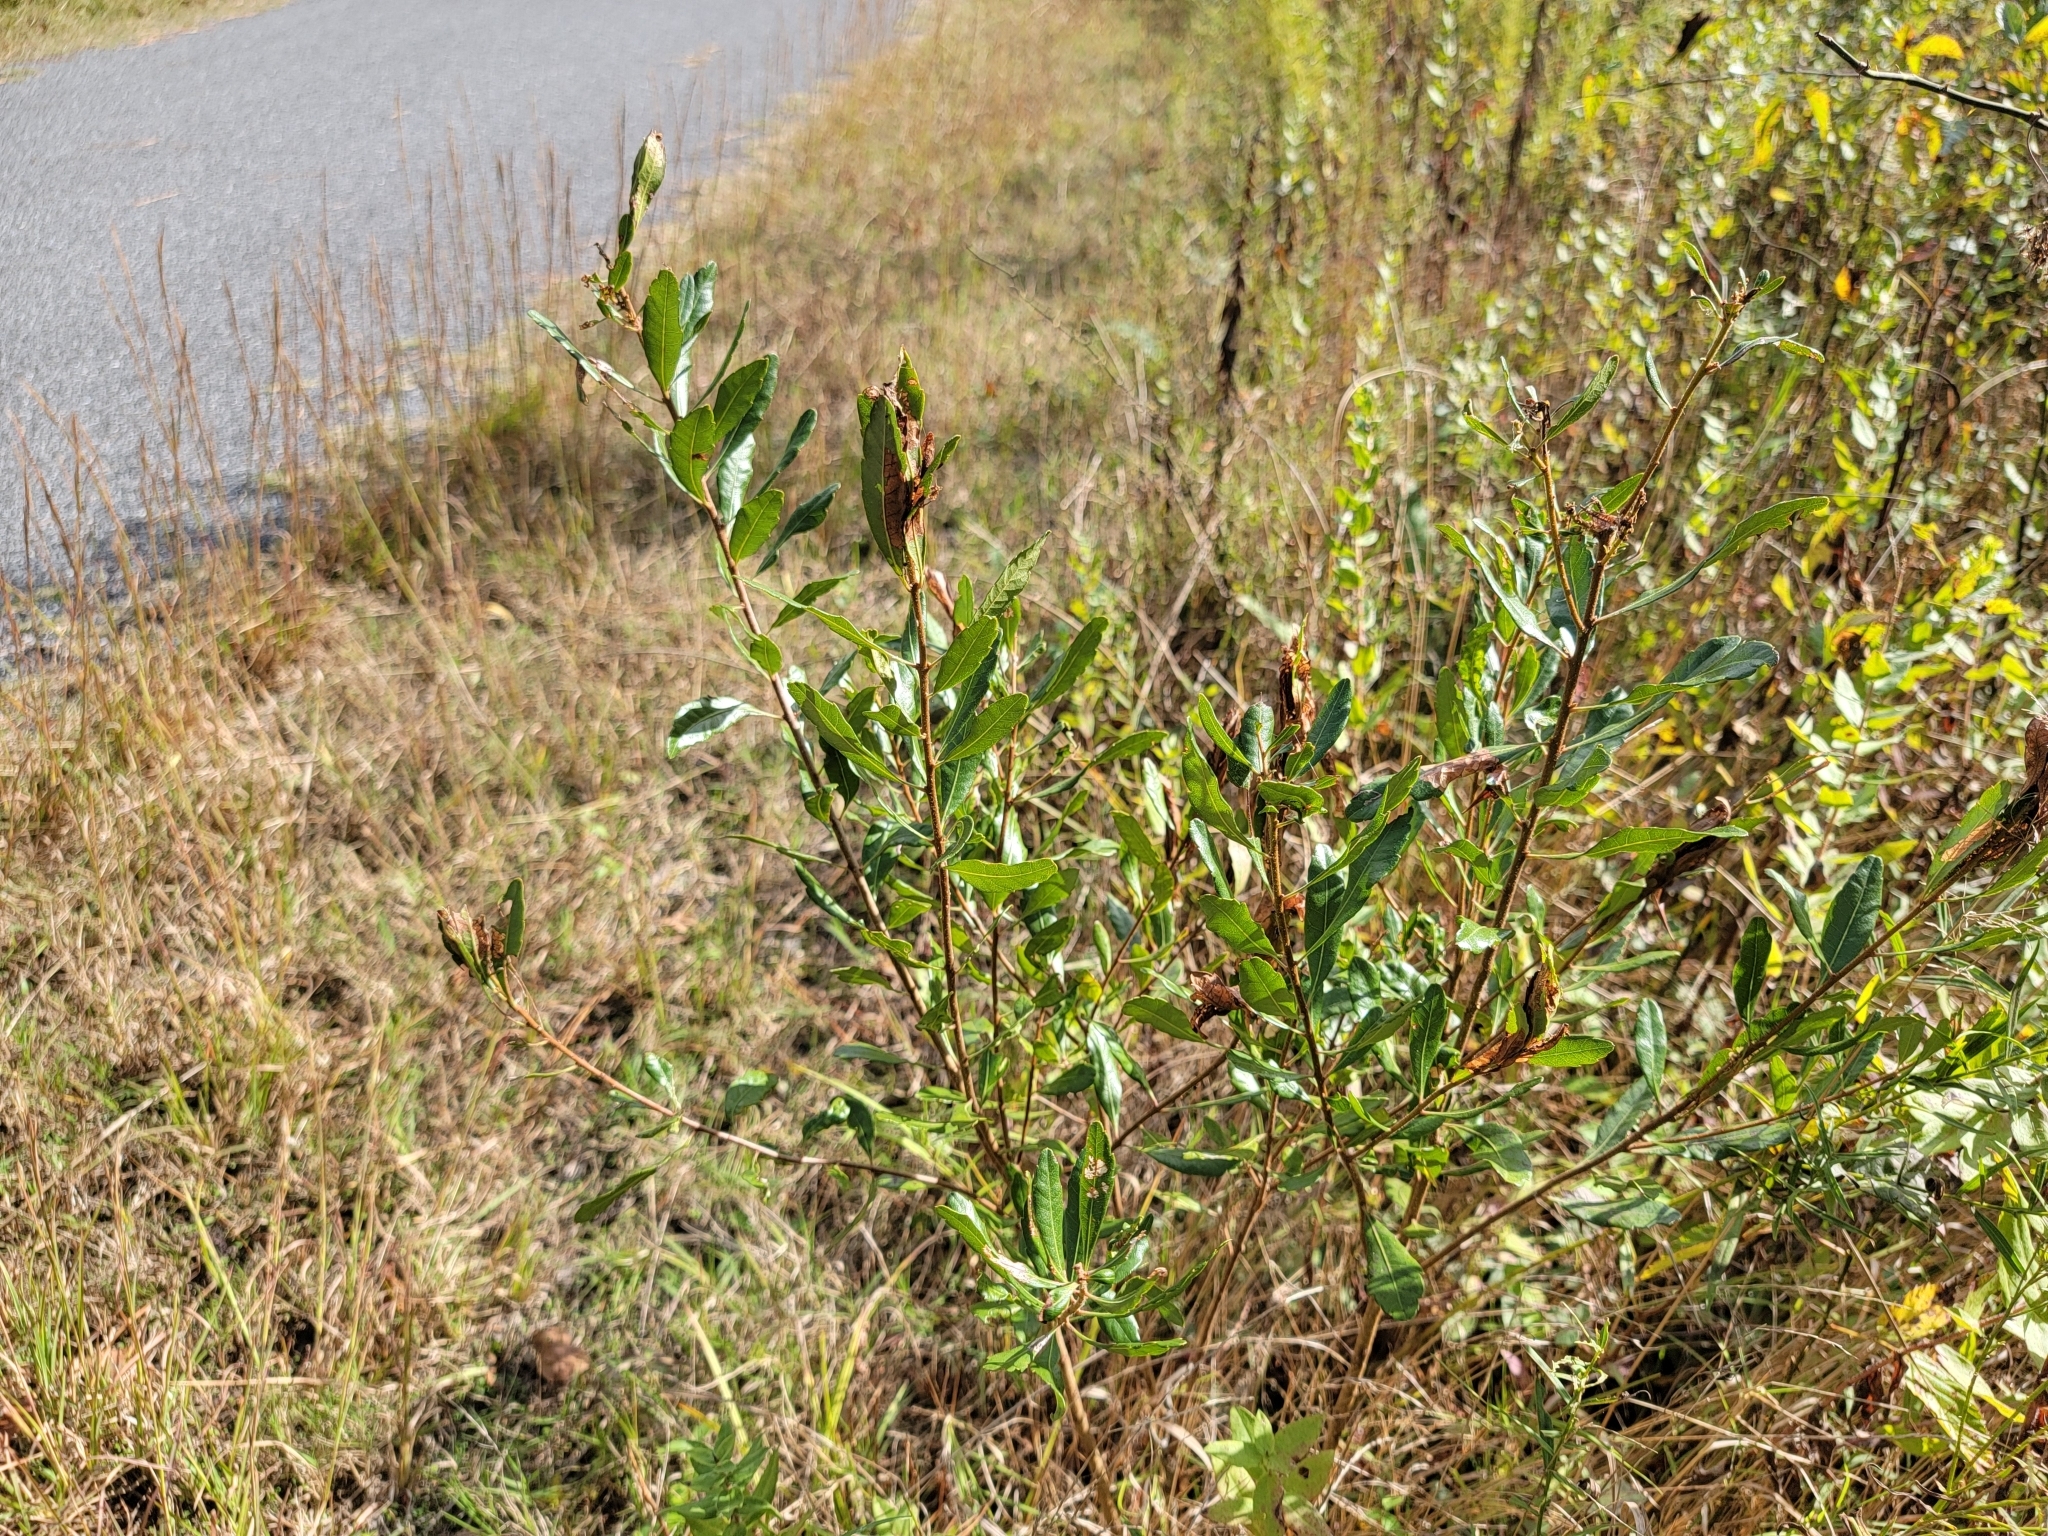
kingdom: Plantae
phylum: Tracheophyta
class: Magnoliopsida
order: Fagales
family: Myricaceae
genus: Morella
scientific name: Morella pensylvanica
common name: Northern bayberry
